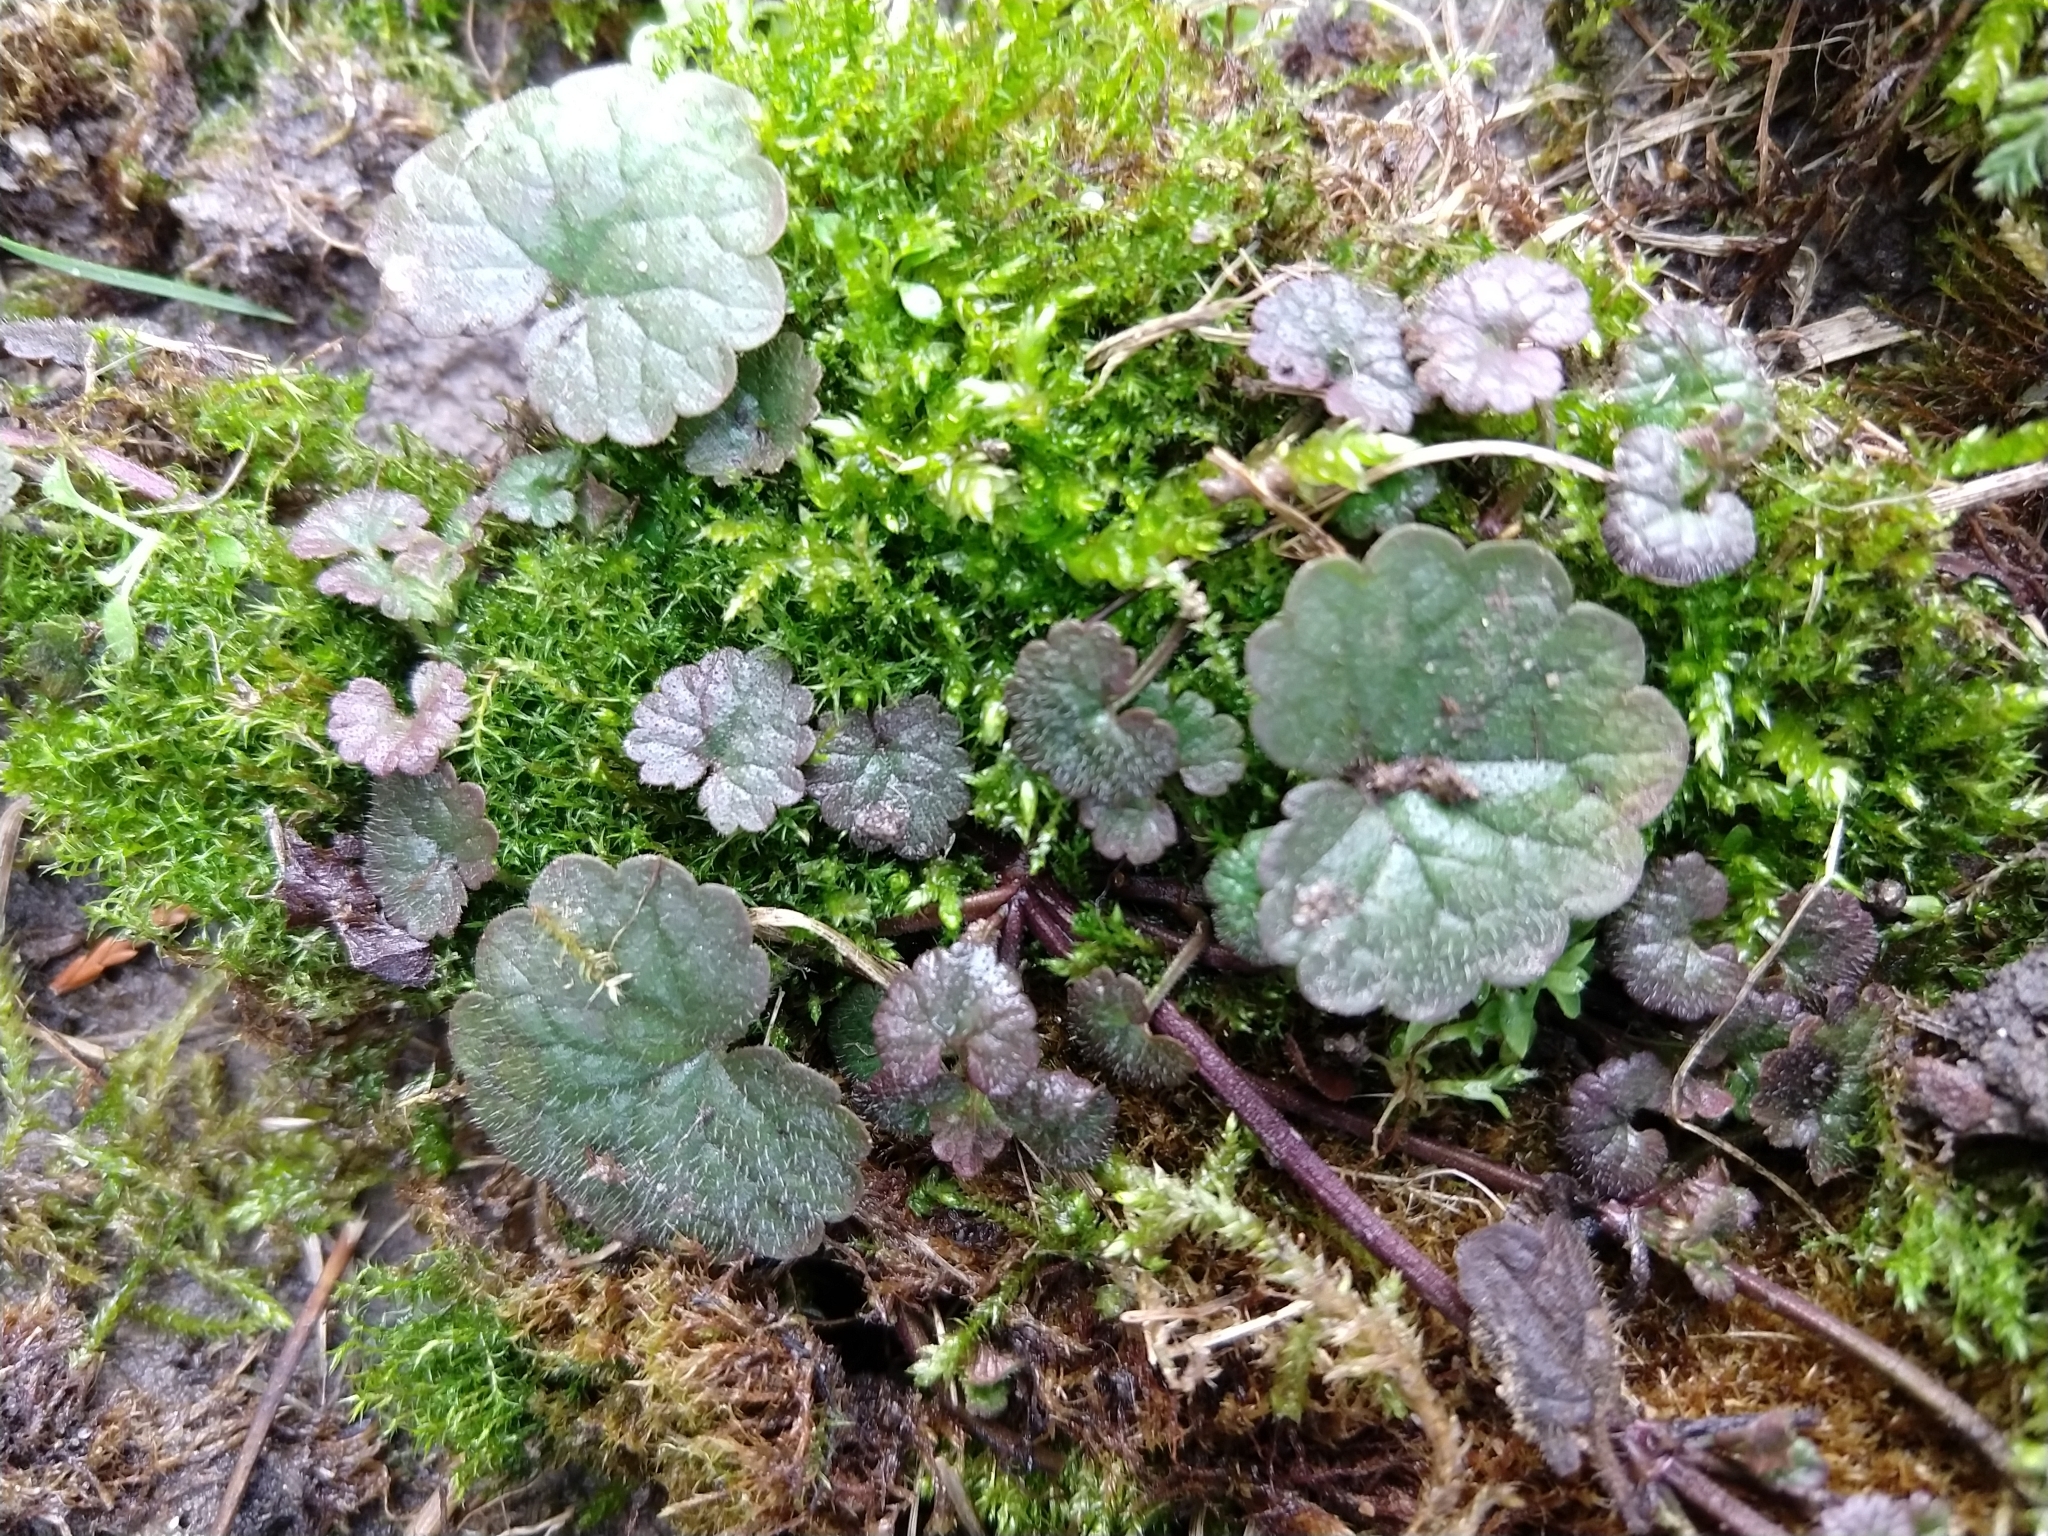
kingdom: Plantae
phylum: Tracheophyta
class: Magnoliopsida
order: Lamiales
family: Lamiaceae
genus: Glechoma
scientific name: Glechoma hederacea
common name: Ground ivy
